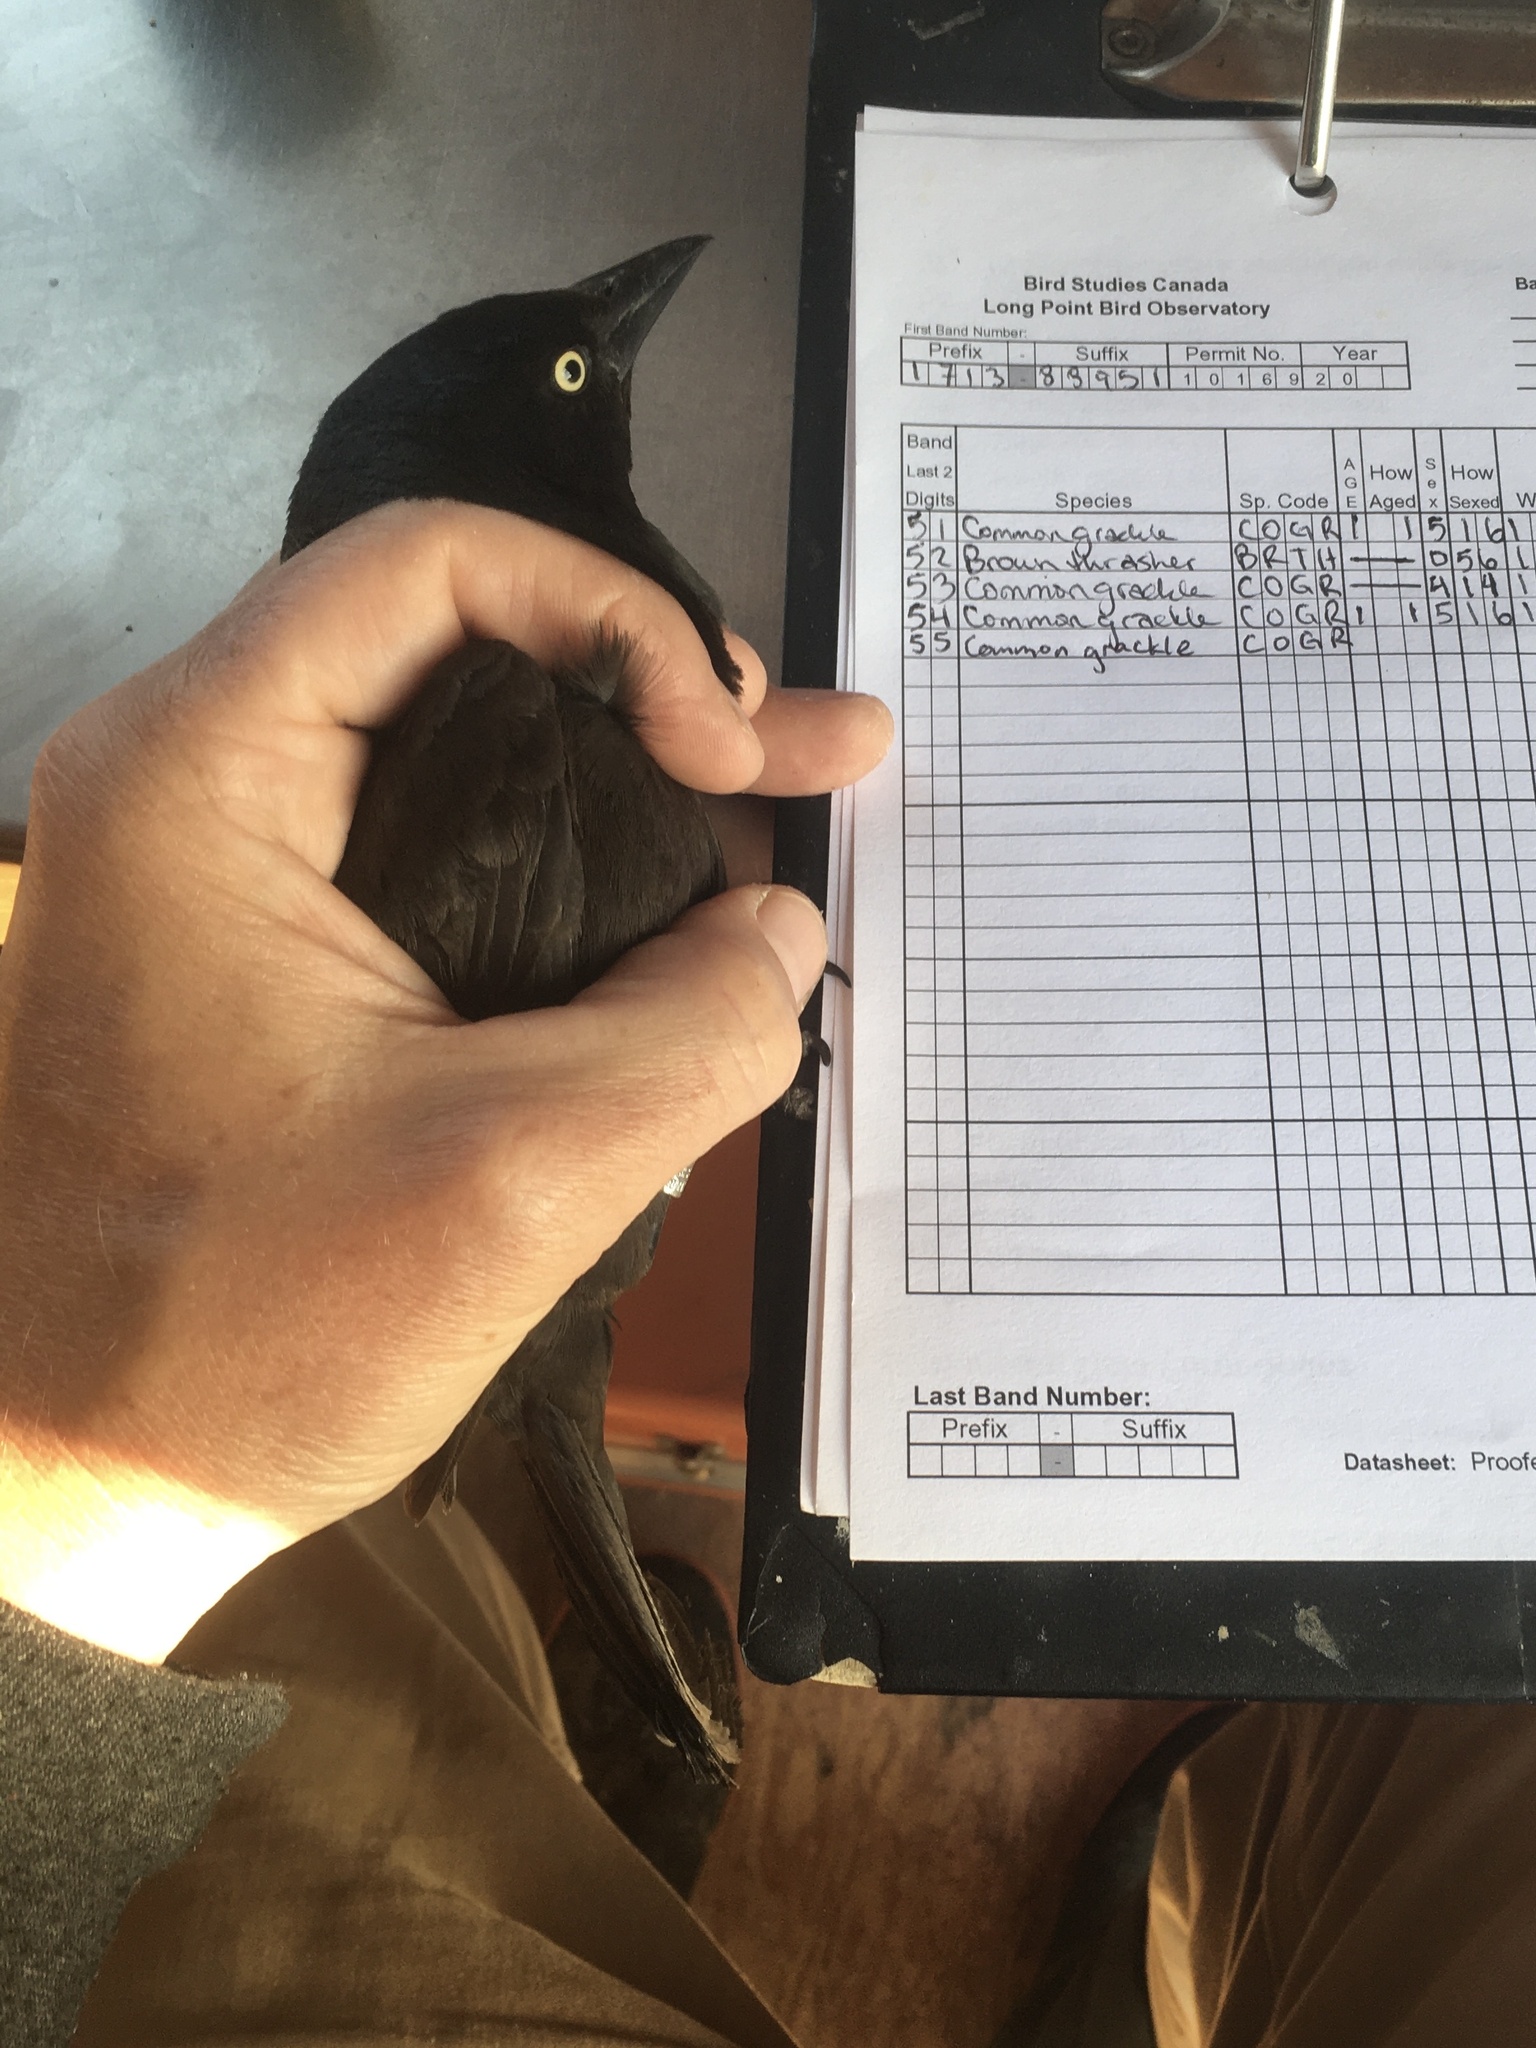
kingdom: Animalia
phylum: Chordata
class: Aves
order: Passeriformes
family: Icteridae
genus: Quiscalus
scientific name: Quiscalus quiscula
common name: Common grackle
